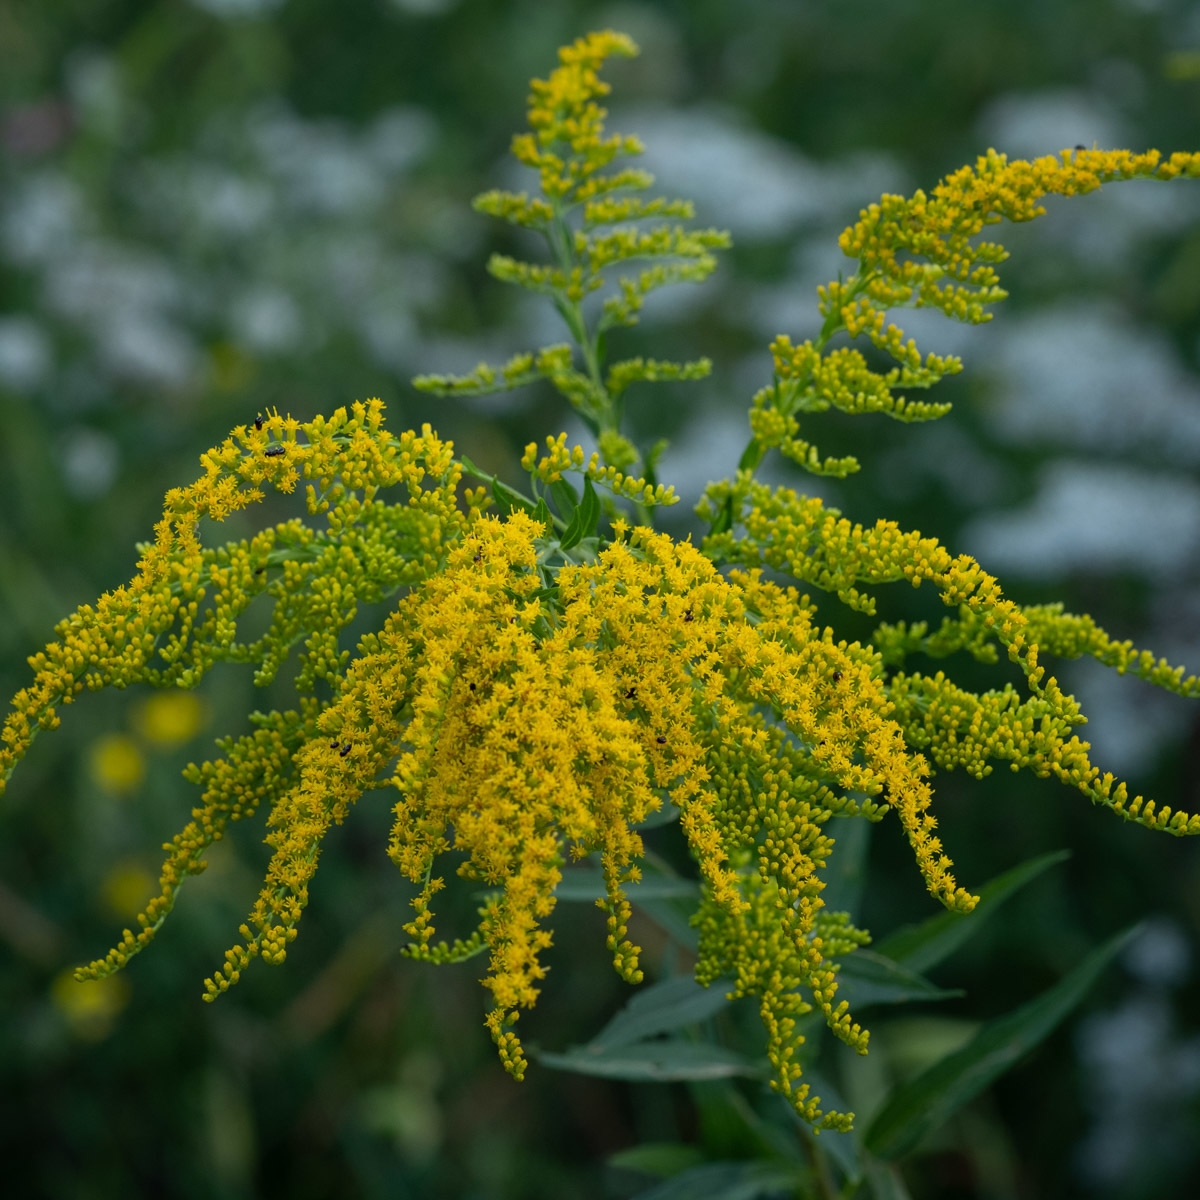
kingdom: Plantae
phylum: Tracheophyta
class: Magnoliopsida
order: Asterales
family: Asteraceae
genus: Solidago
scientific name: Solidago canadensis
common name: Canada goldenrod
